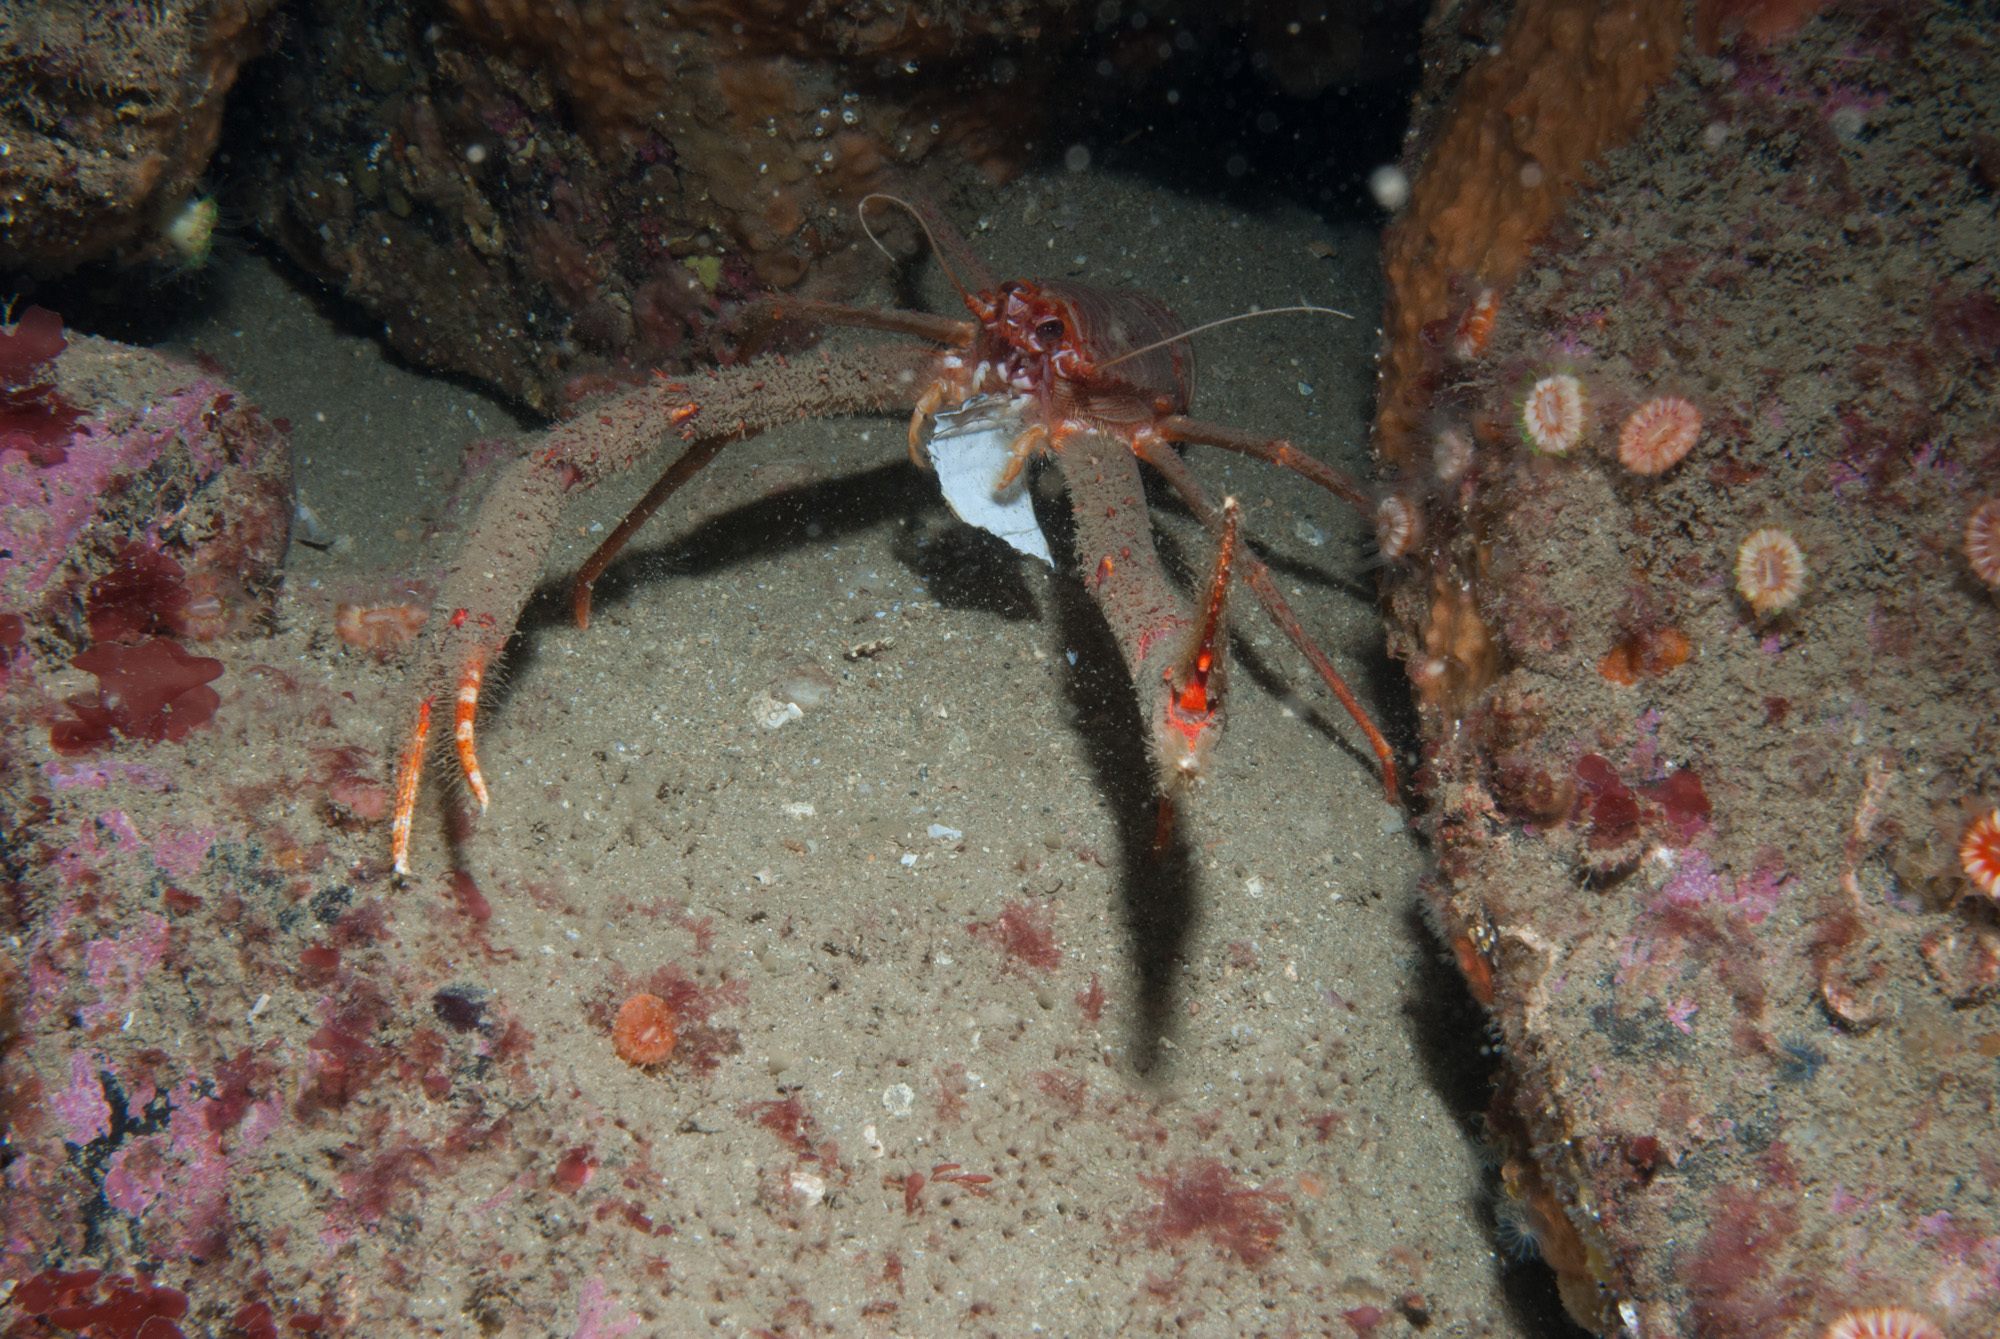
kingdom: Animalia
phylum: Arthropoda
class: Malacostraca
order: Decapoda
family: Munididae
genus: Munida
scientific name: Munida rugosa
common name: Rugose squat lobster
